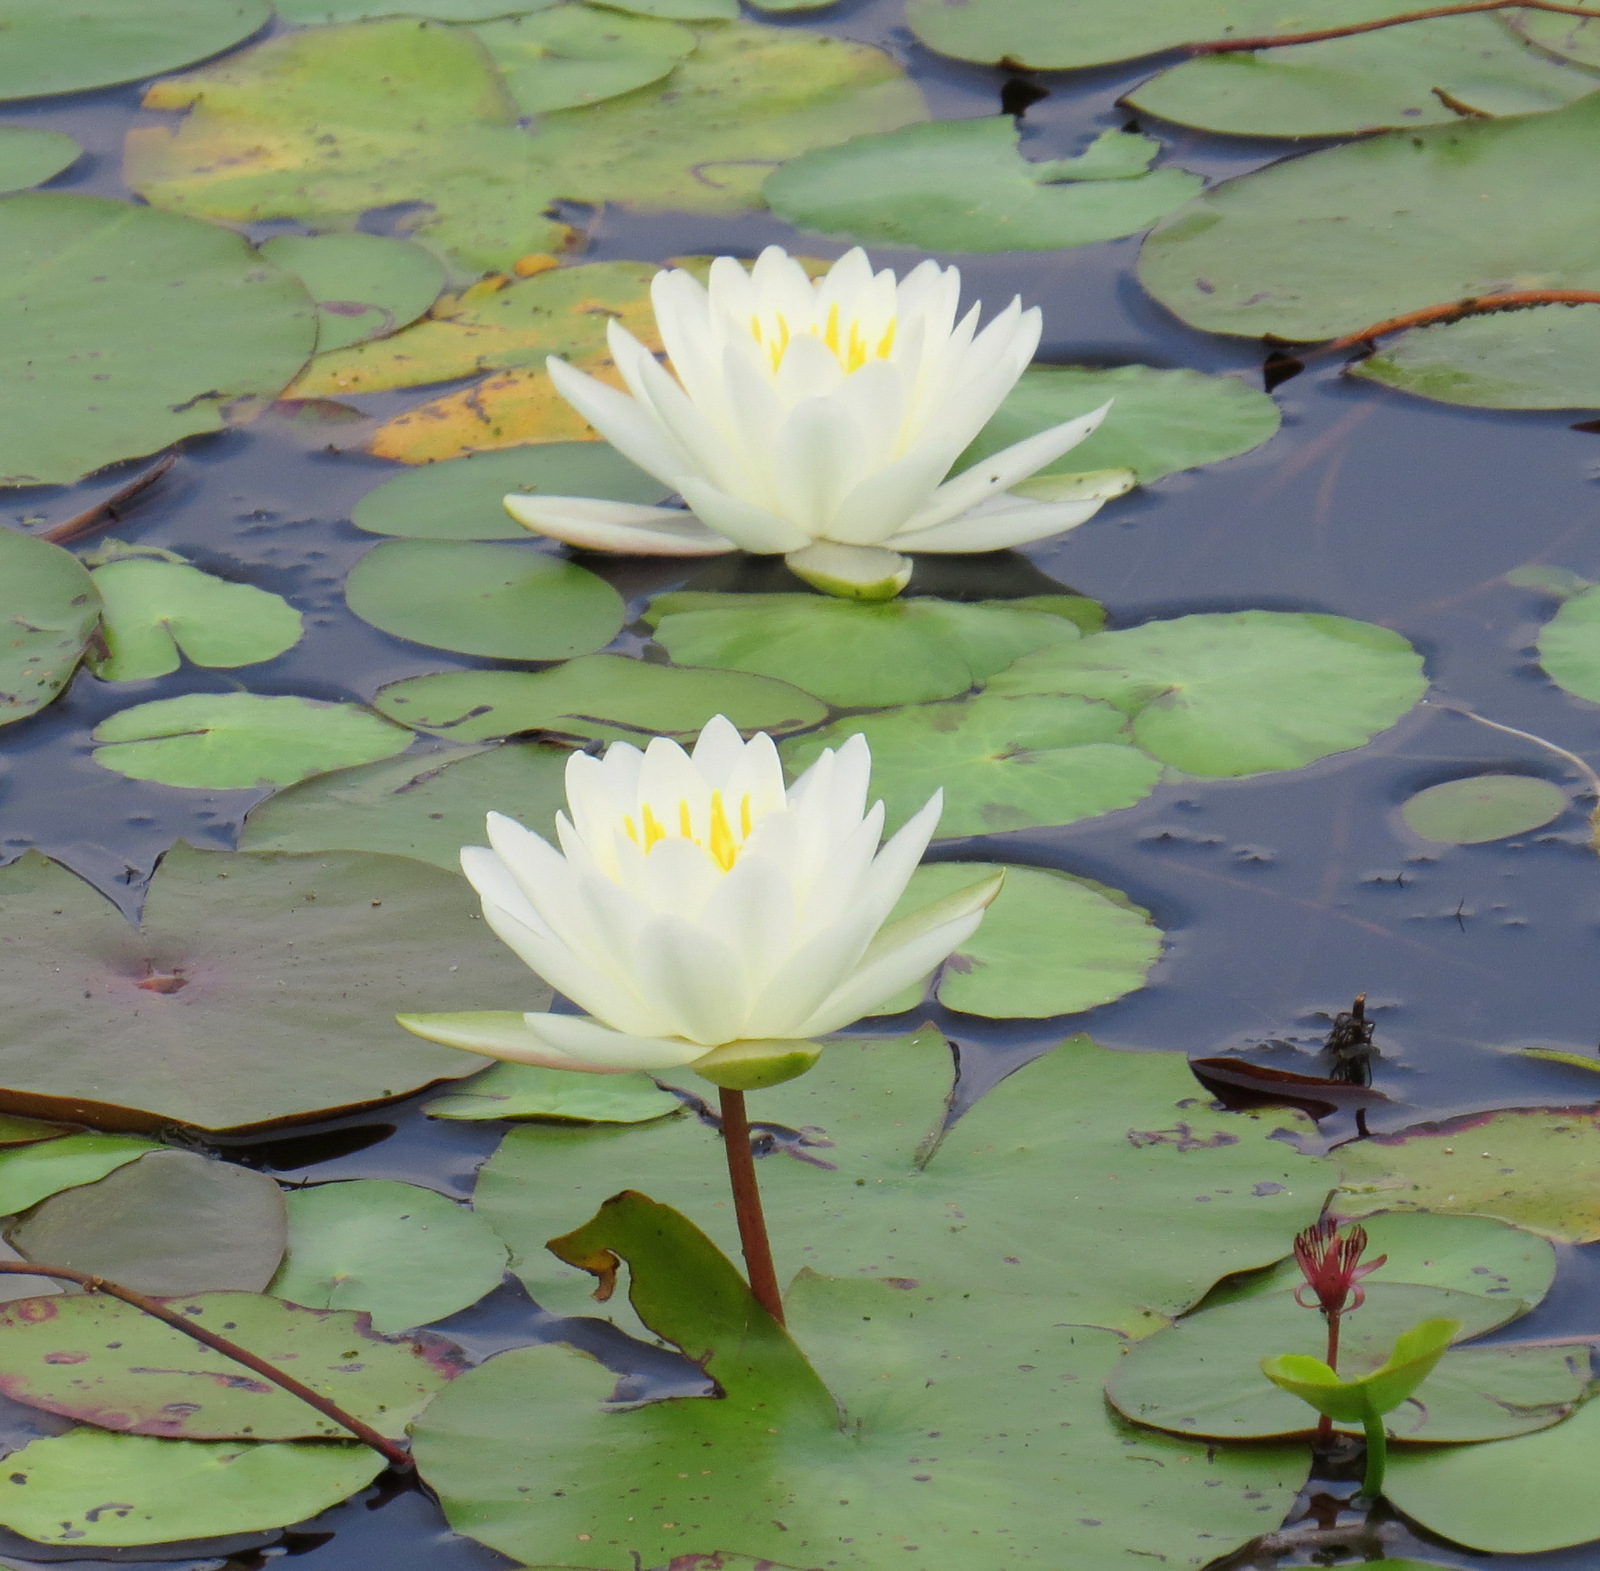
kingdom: Plantae
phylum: Tracheophyta
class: Magnoliopsida
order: Nymphaeales
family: Nymphaeaceae
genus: Nymphaea
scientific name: Nymphaea odorata
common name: Fragrant water-lily
